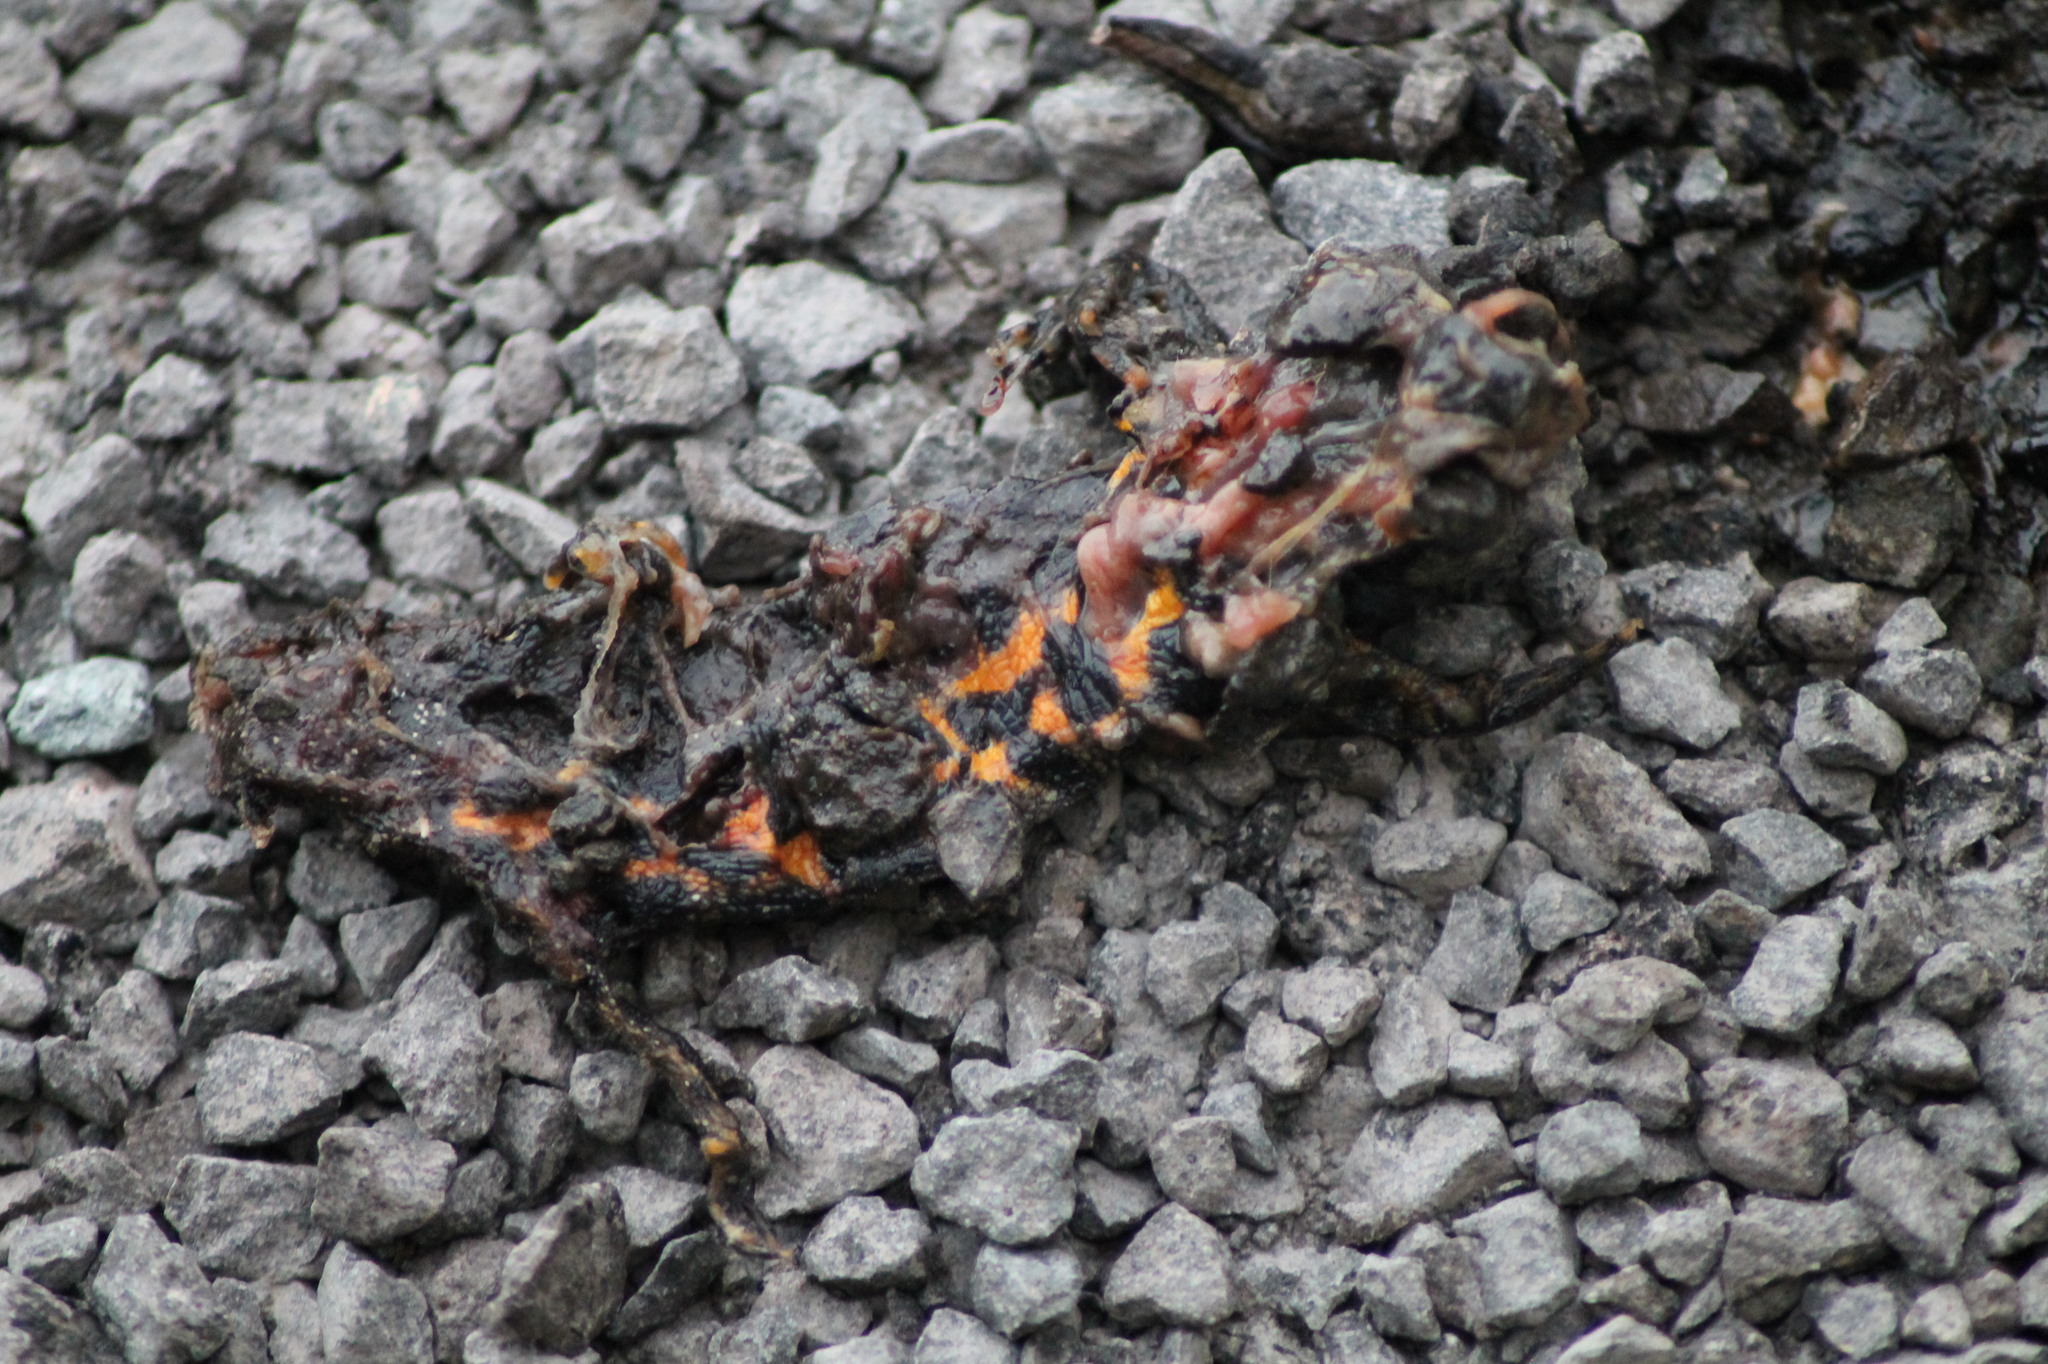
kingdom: Animalia
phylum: Chordata
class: Amphibia
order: Caudata
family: Salamandridae
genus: Triturus
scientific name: Triturus carnifex
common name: Italian crested newt
